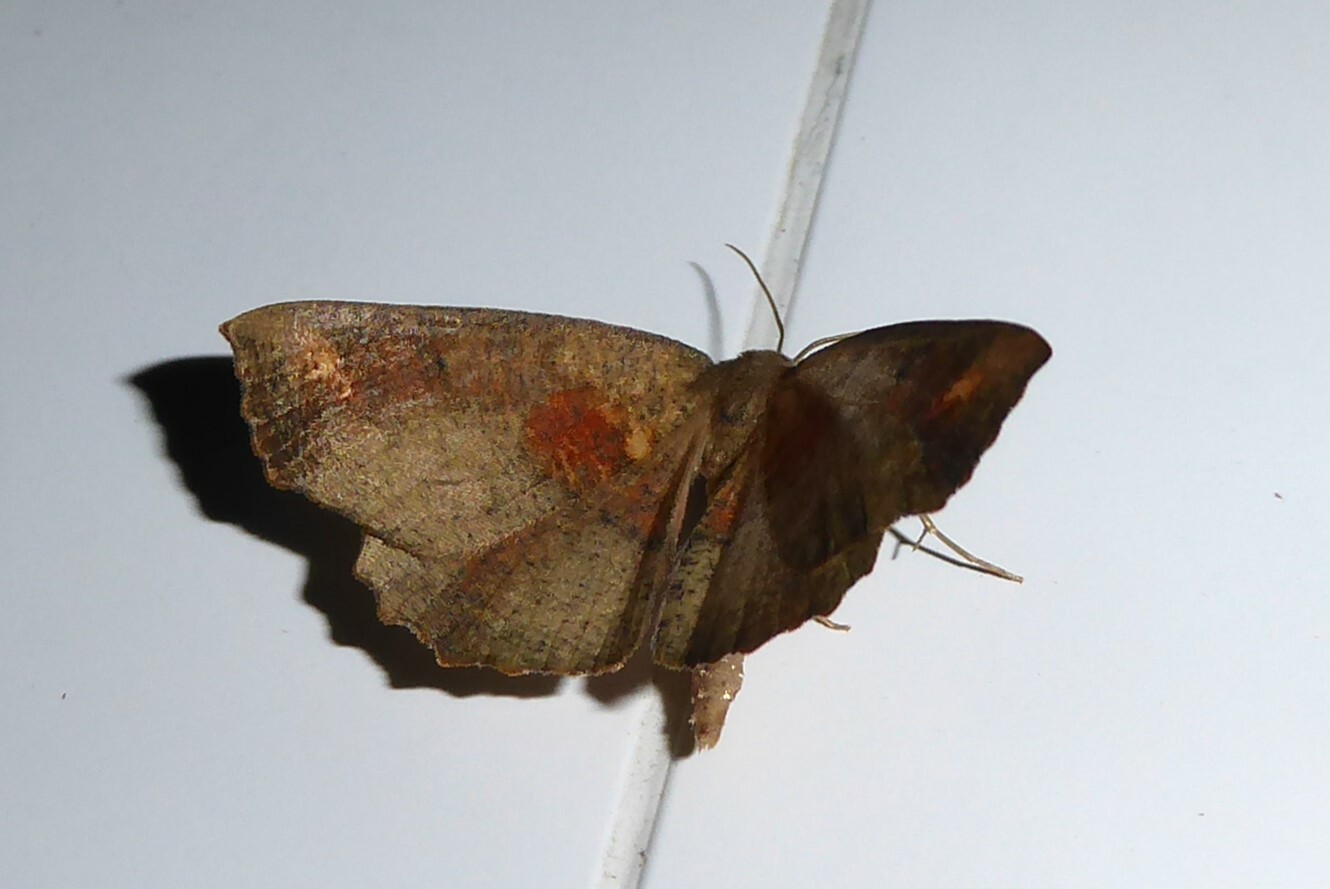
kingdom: Animalia
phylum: Arthropoda
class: Insecta
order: Lepidoptera
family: Geometridae
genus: Xyridacma
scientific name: Xyridacma ustaria
